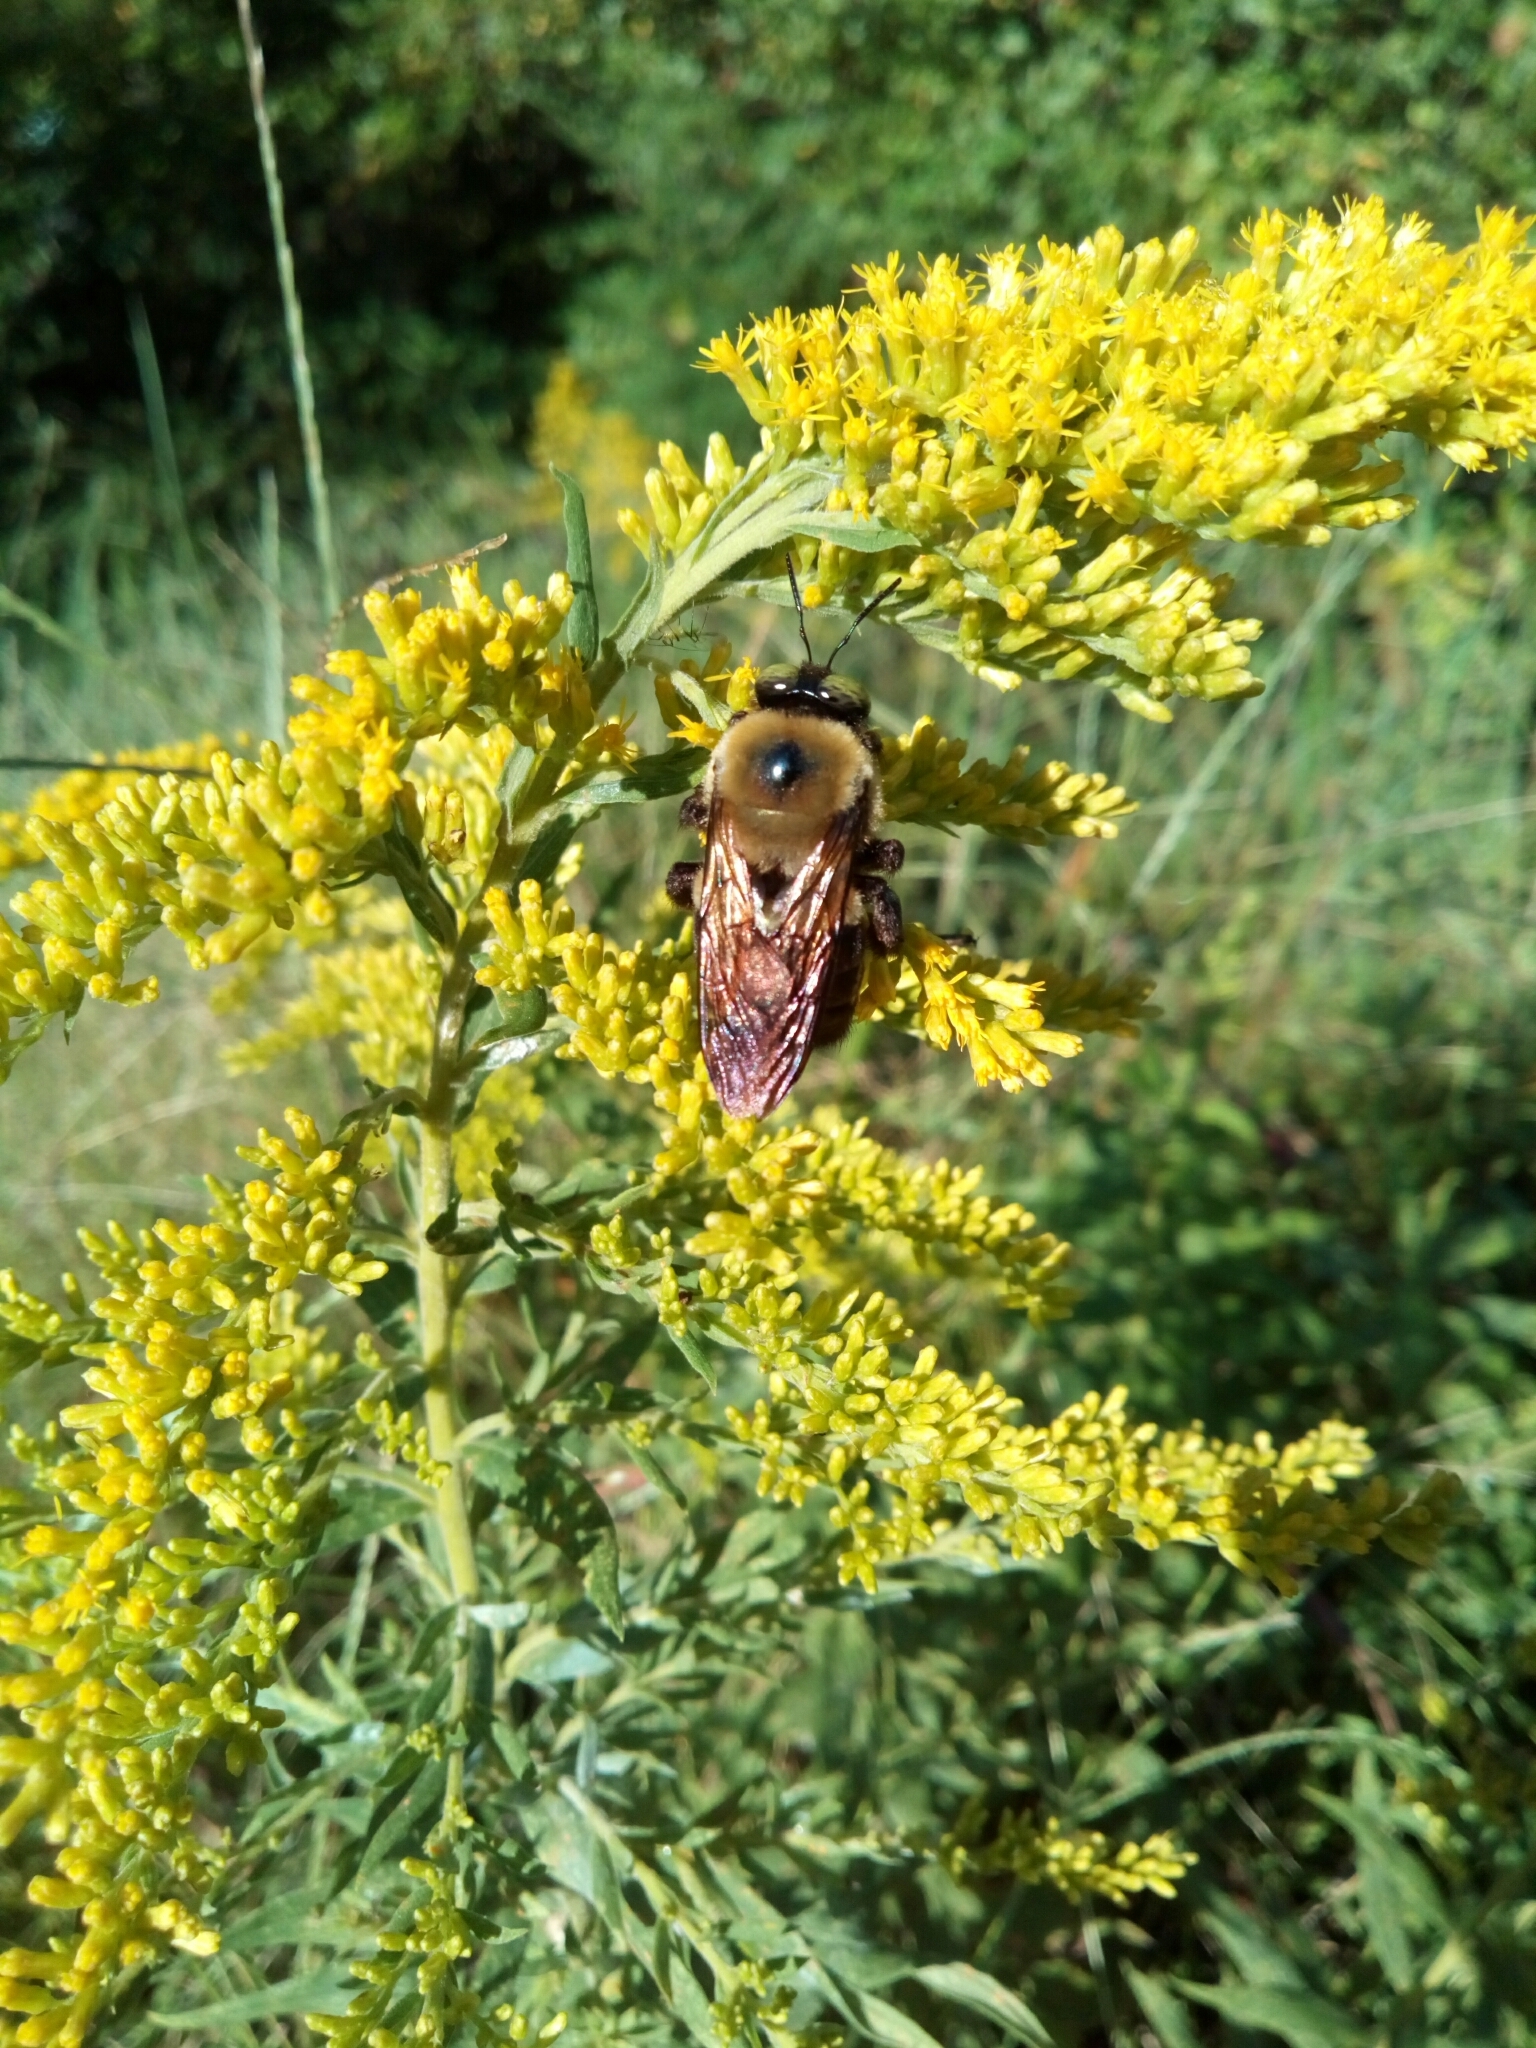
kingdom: Animalia
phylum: Arthropoda
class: Insecta
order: Hymenoptera
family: Apidae
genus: Xylocopa
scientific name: Xylocopa virginica
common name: Carpenter bee
